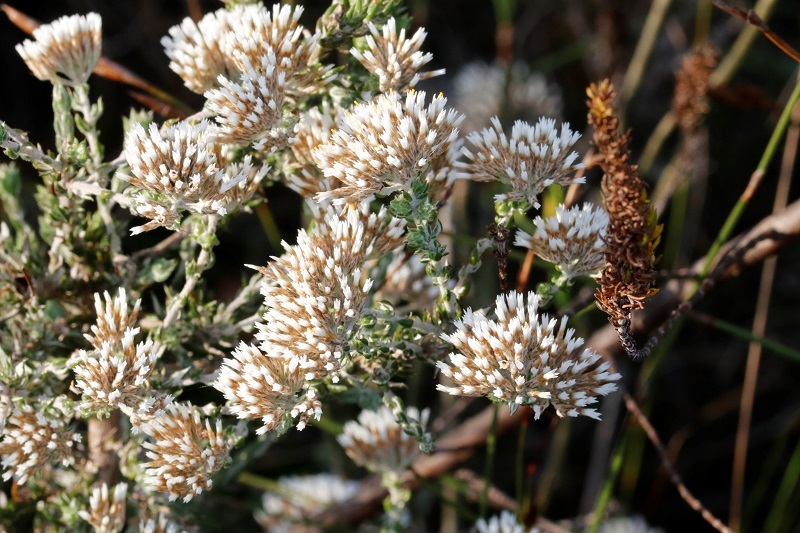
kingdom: Plantae
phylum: Tracheophyta
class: Magnoliopsida
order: Asterales
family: Asteraceae
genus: Metalasia
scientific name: Metalasia pungens
